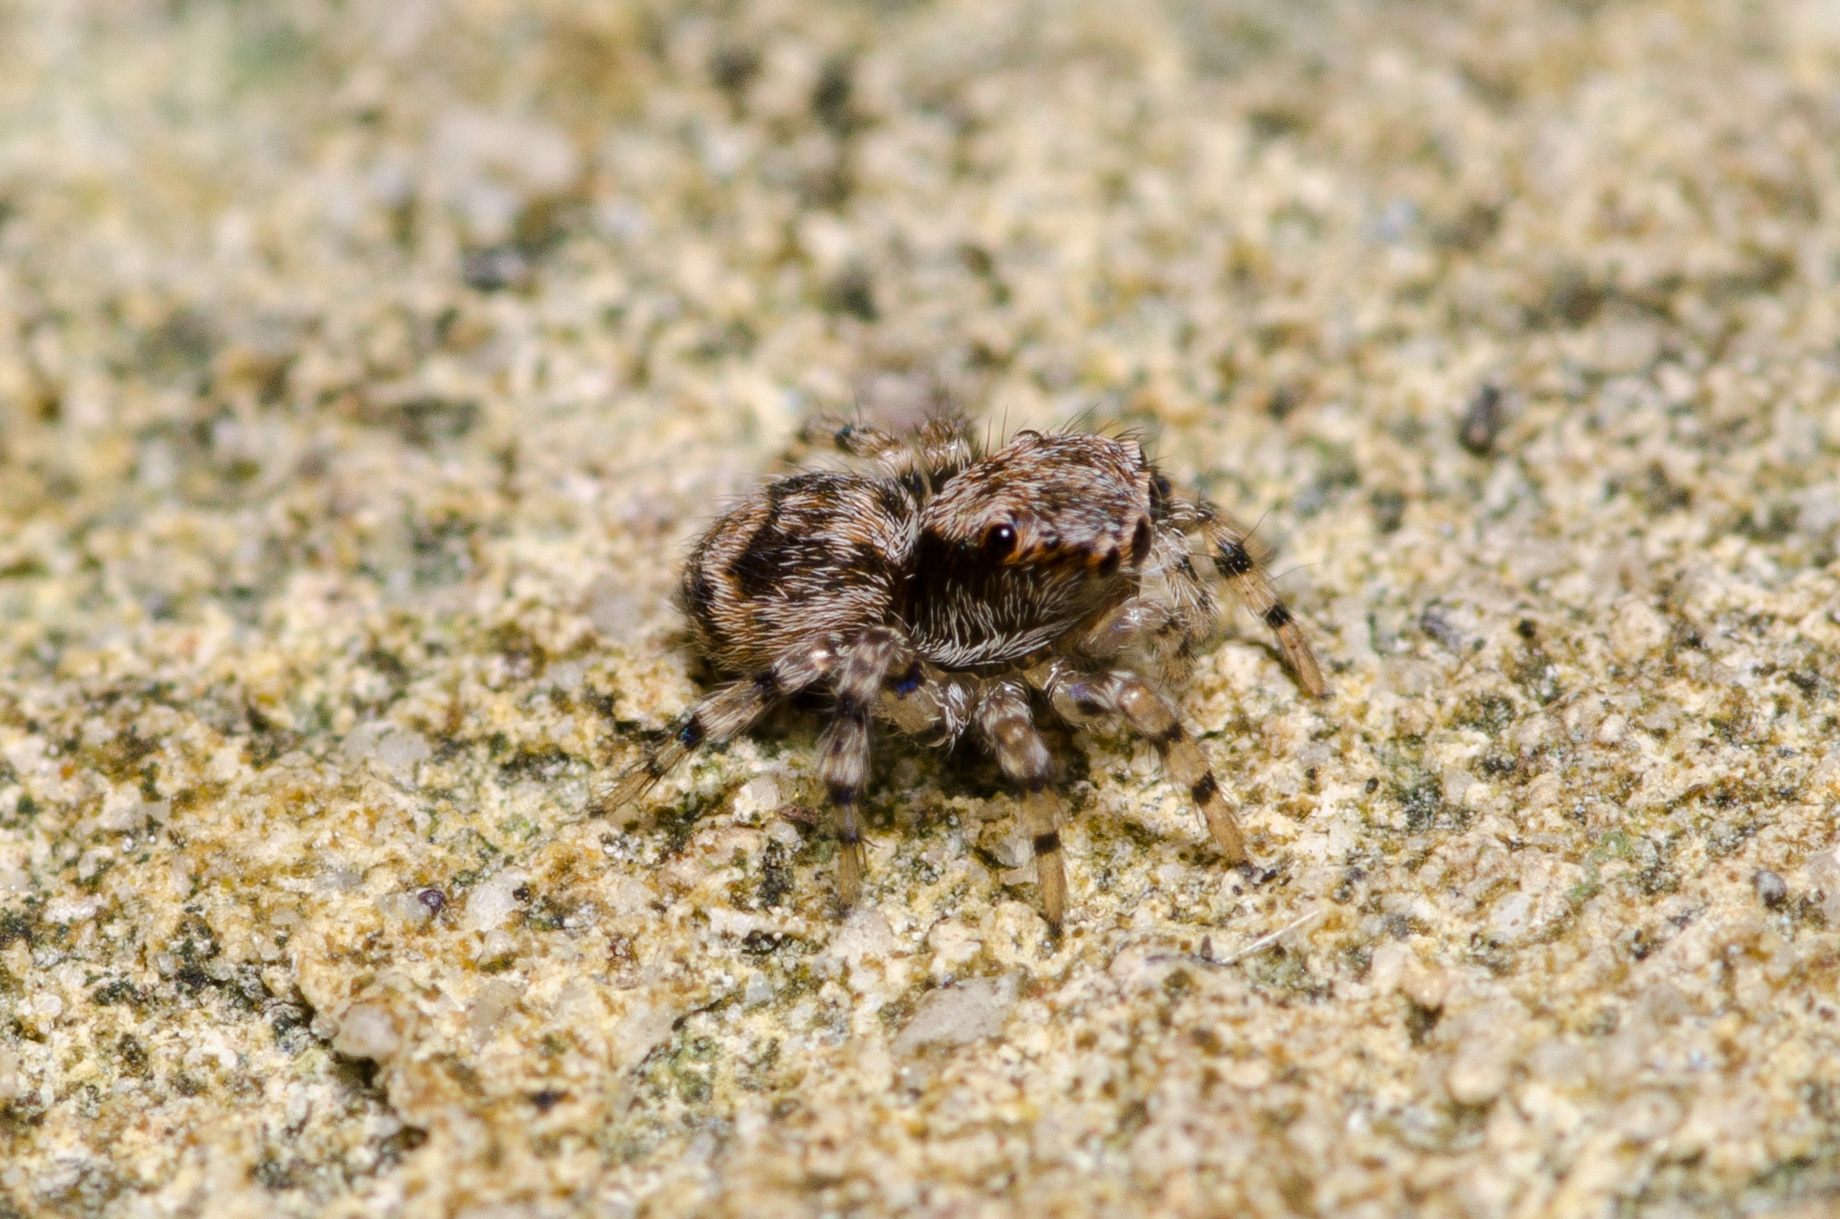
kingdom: Animalia
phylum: Arthropoda
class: Arachnida
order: Araneae
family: Salticidae
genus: Naphrys
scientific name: Naphrys pulex
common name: Flea jumping spider
